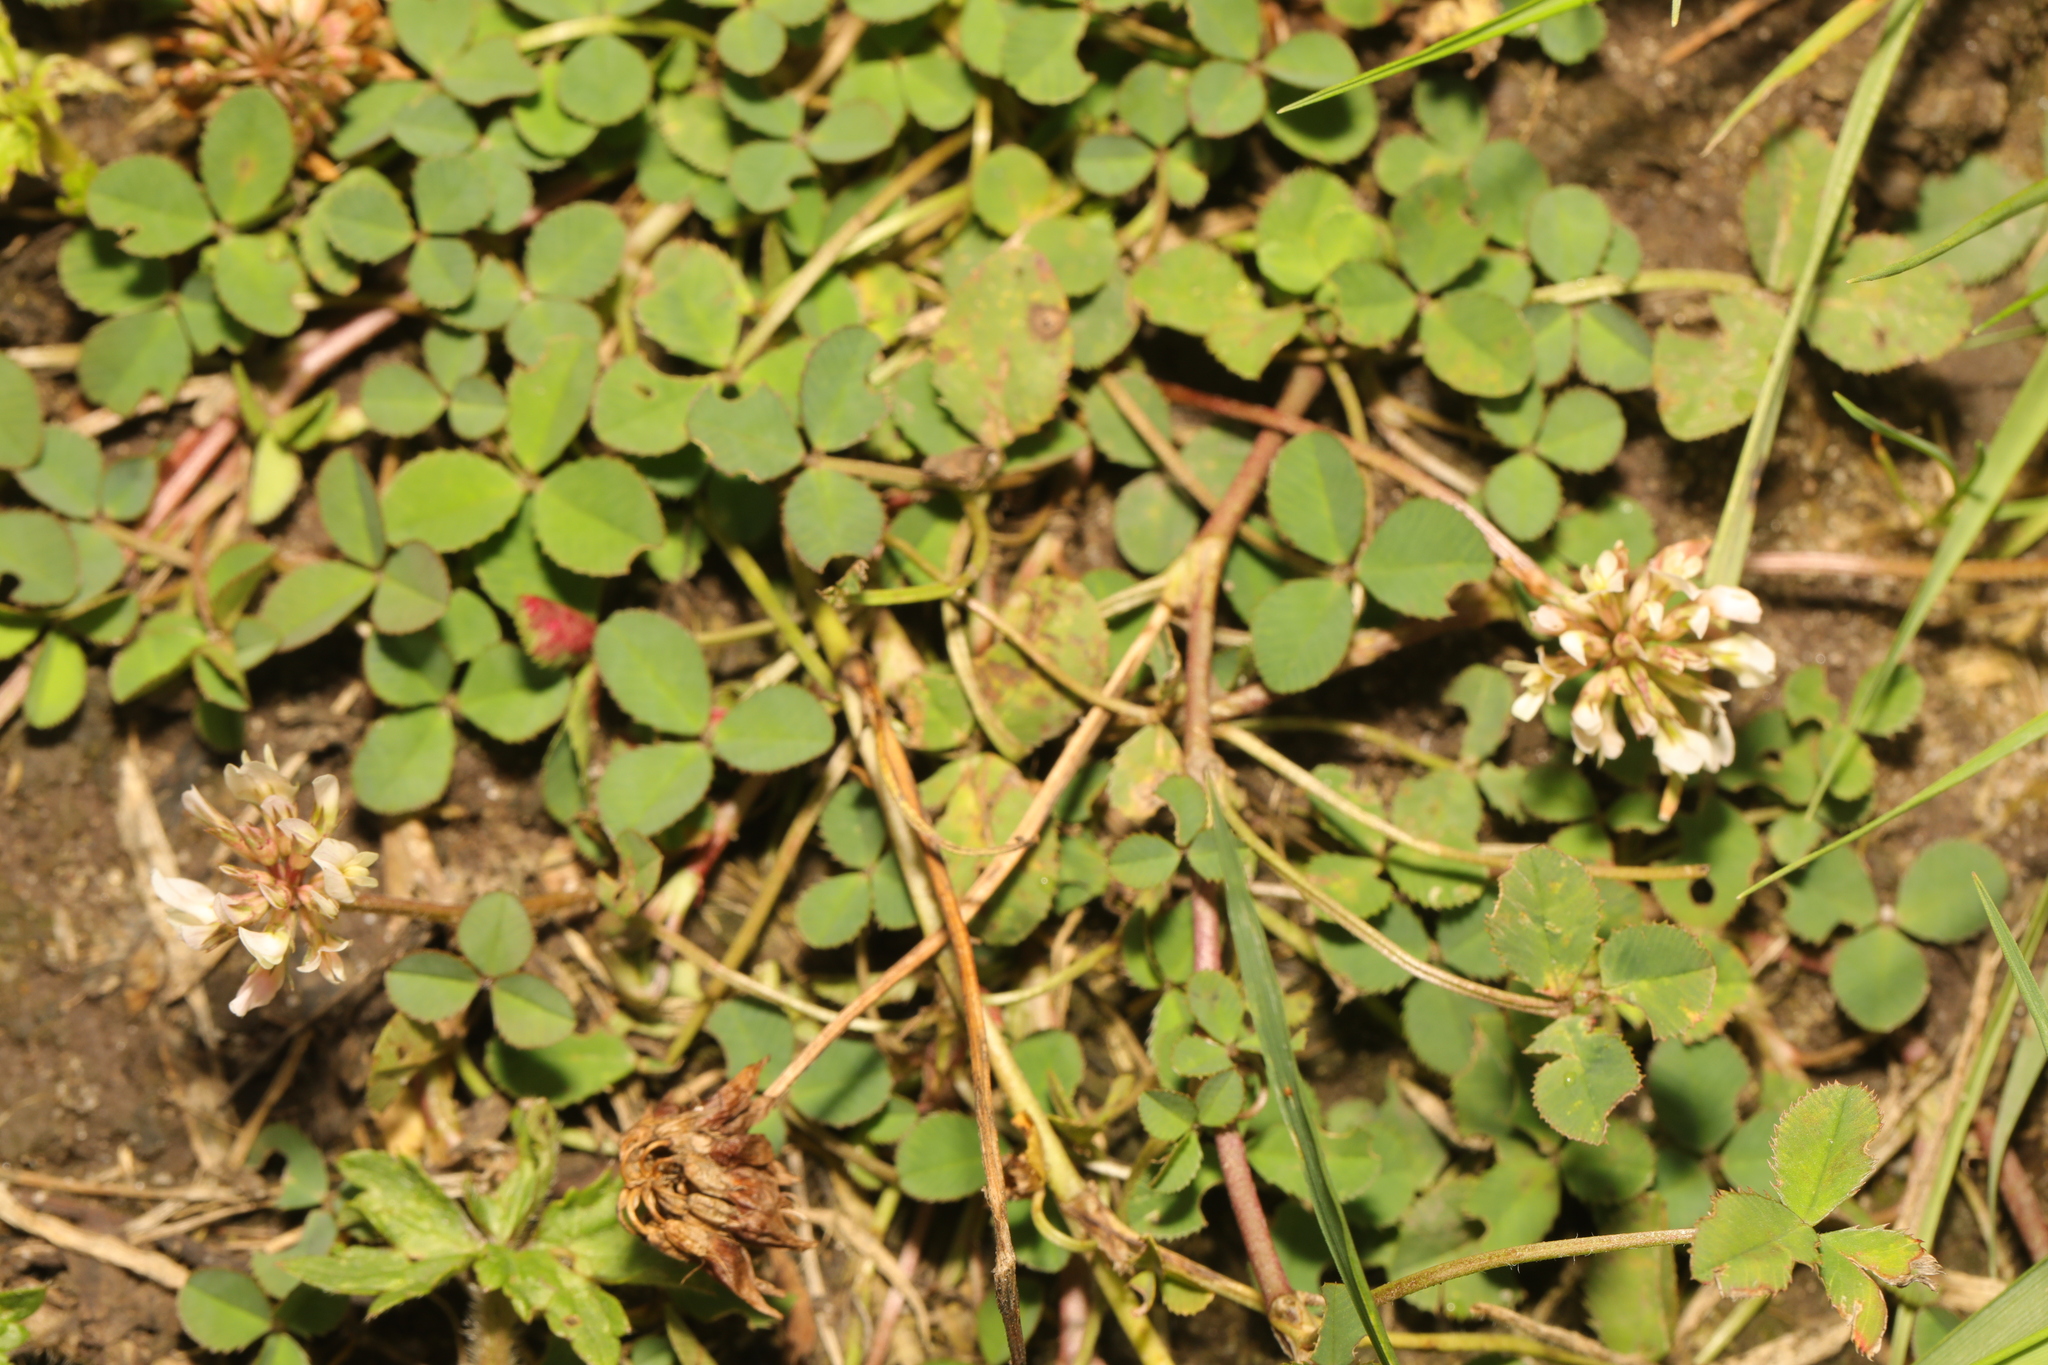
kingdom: Plantae
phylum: Tracheophyta
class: Magnoliopsida
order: Fabales
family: Fabaceae
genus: Trifolium
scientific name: Trifolium repens
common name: White clover
